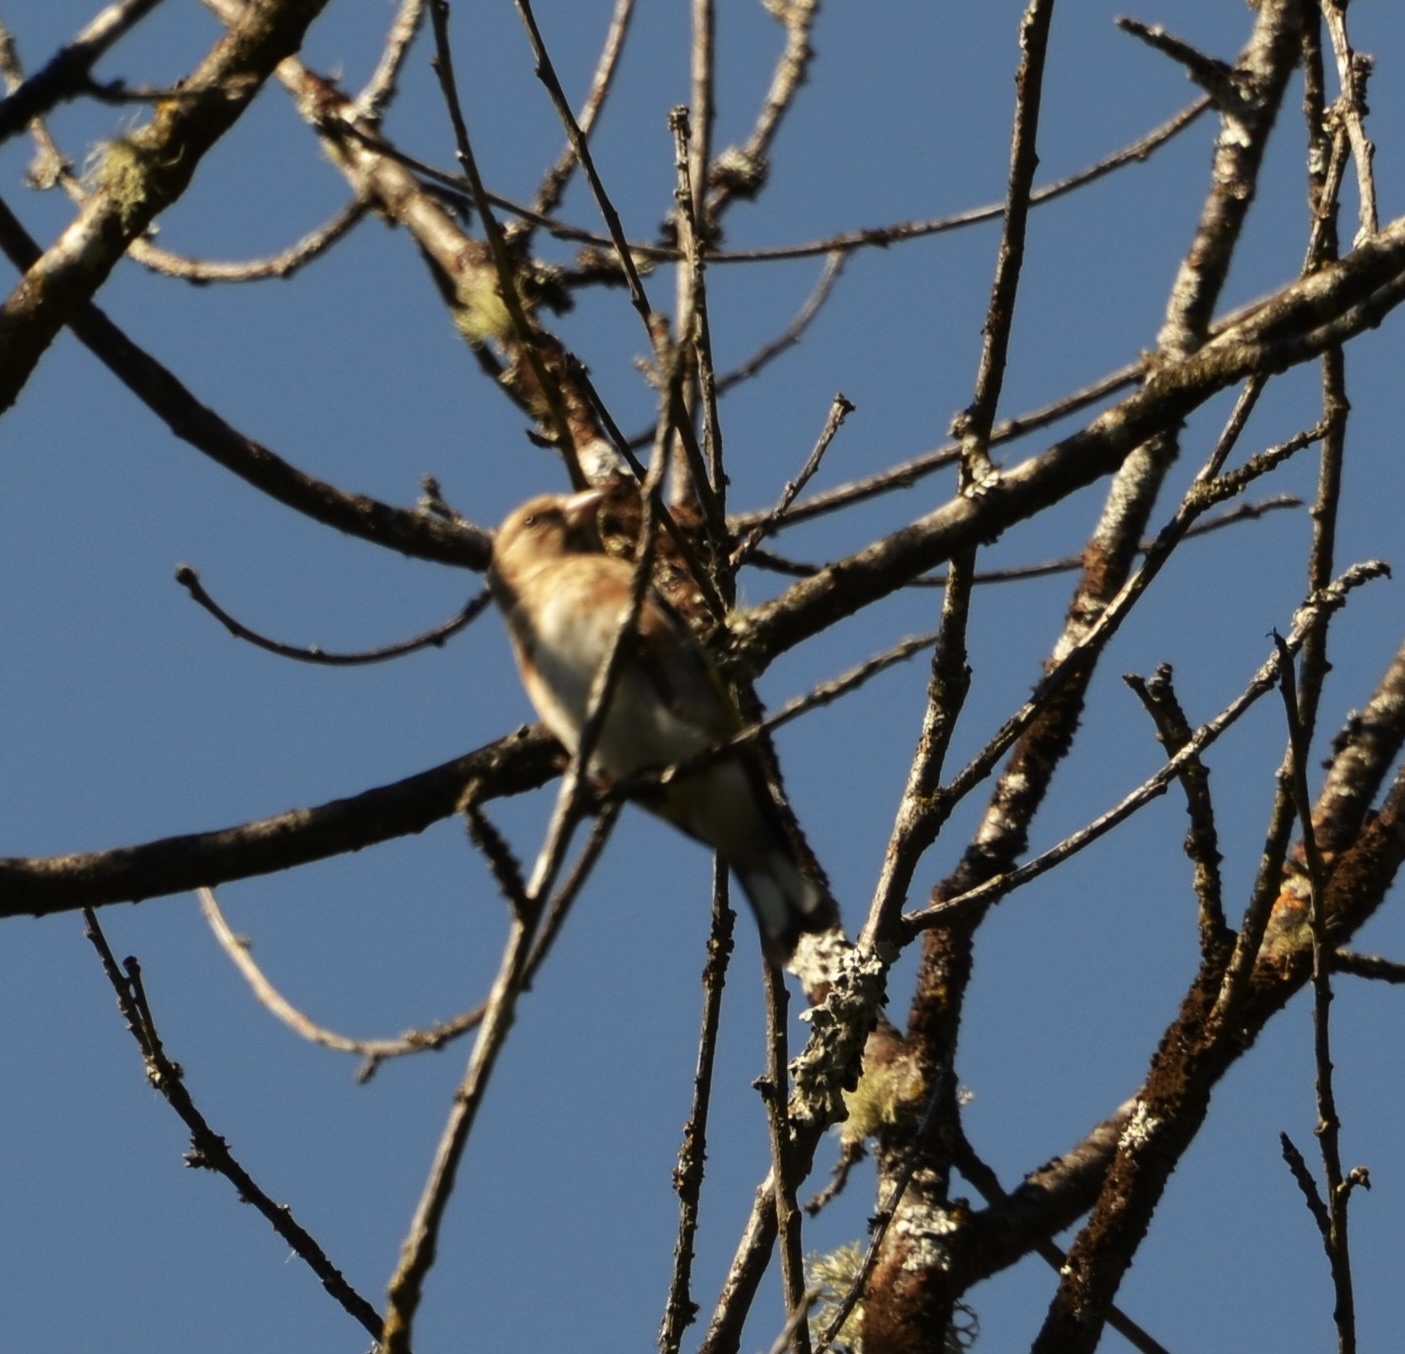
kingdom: Animalia
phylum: Chordata
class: Aves
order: Passeriformes
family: Fringillidae
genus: Carduelis
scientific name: Carduelis carduelis
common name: European goldfinch
